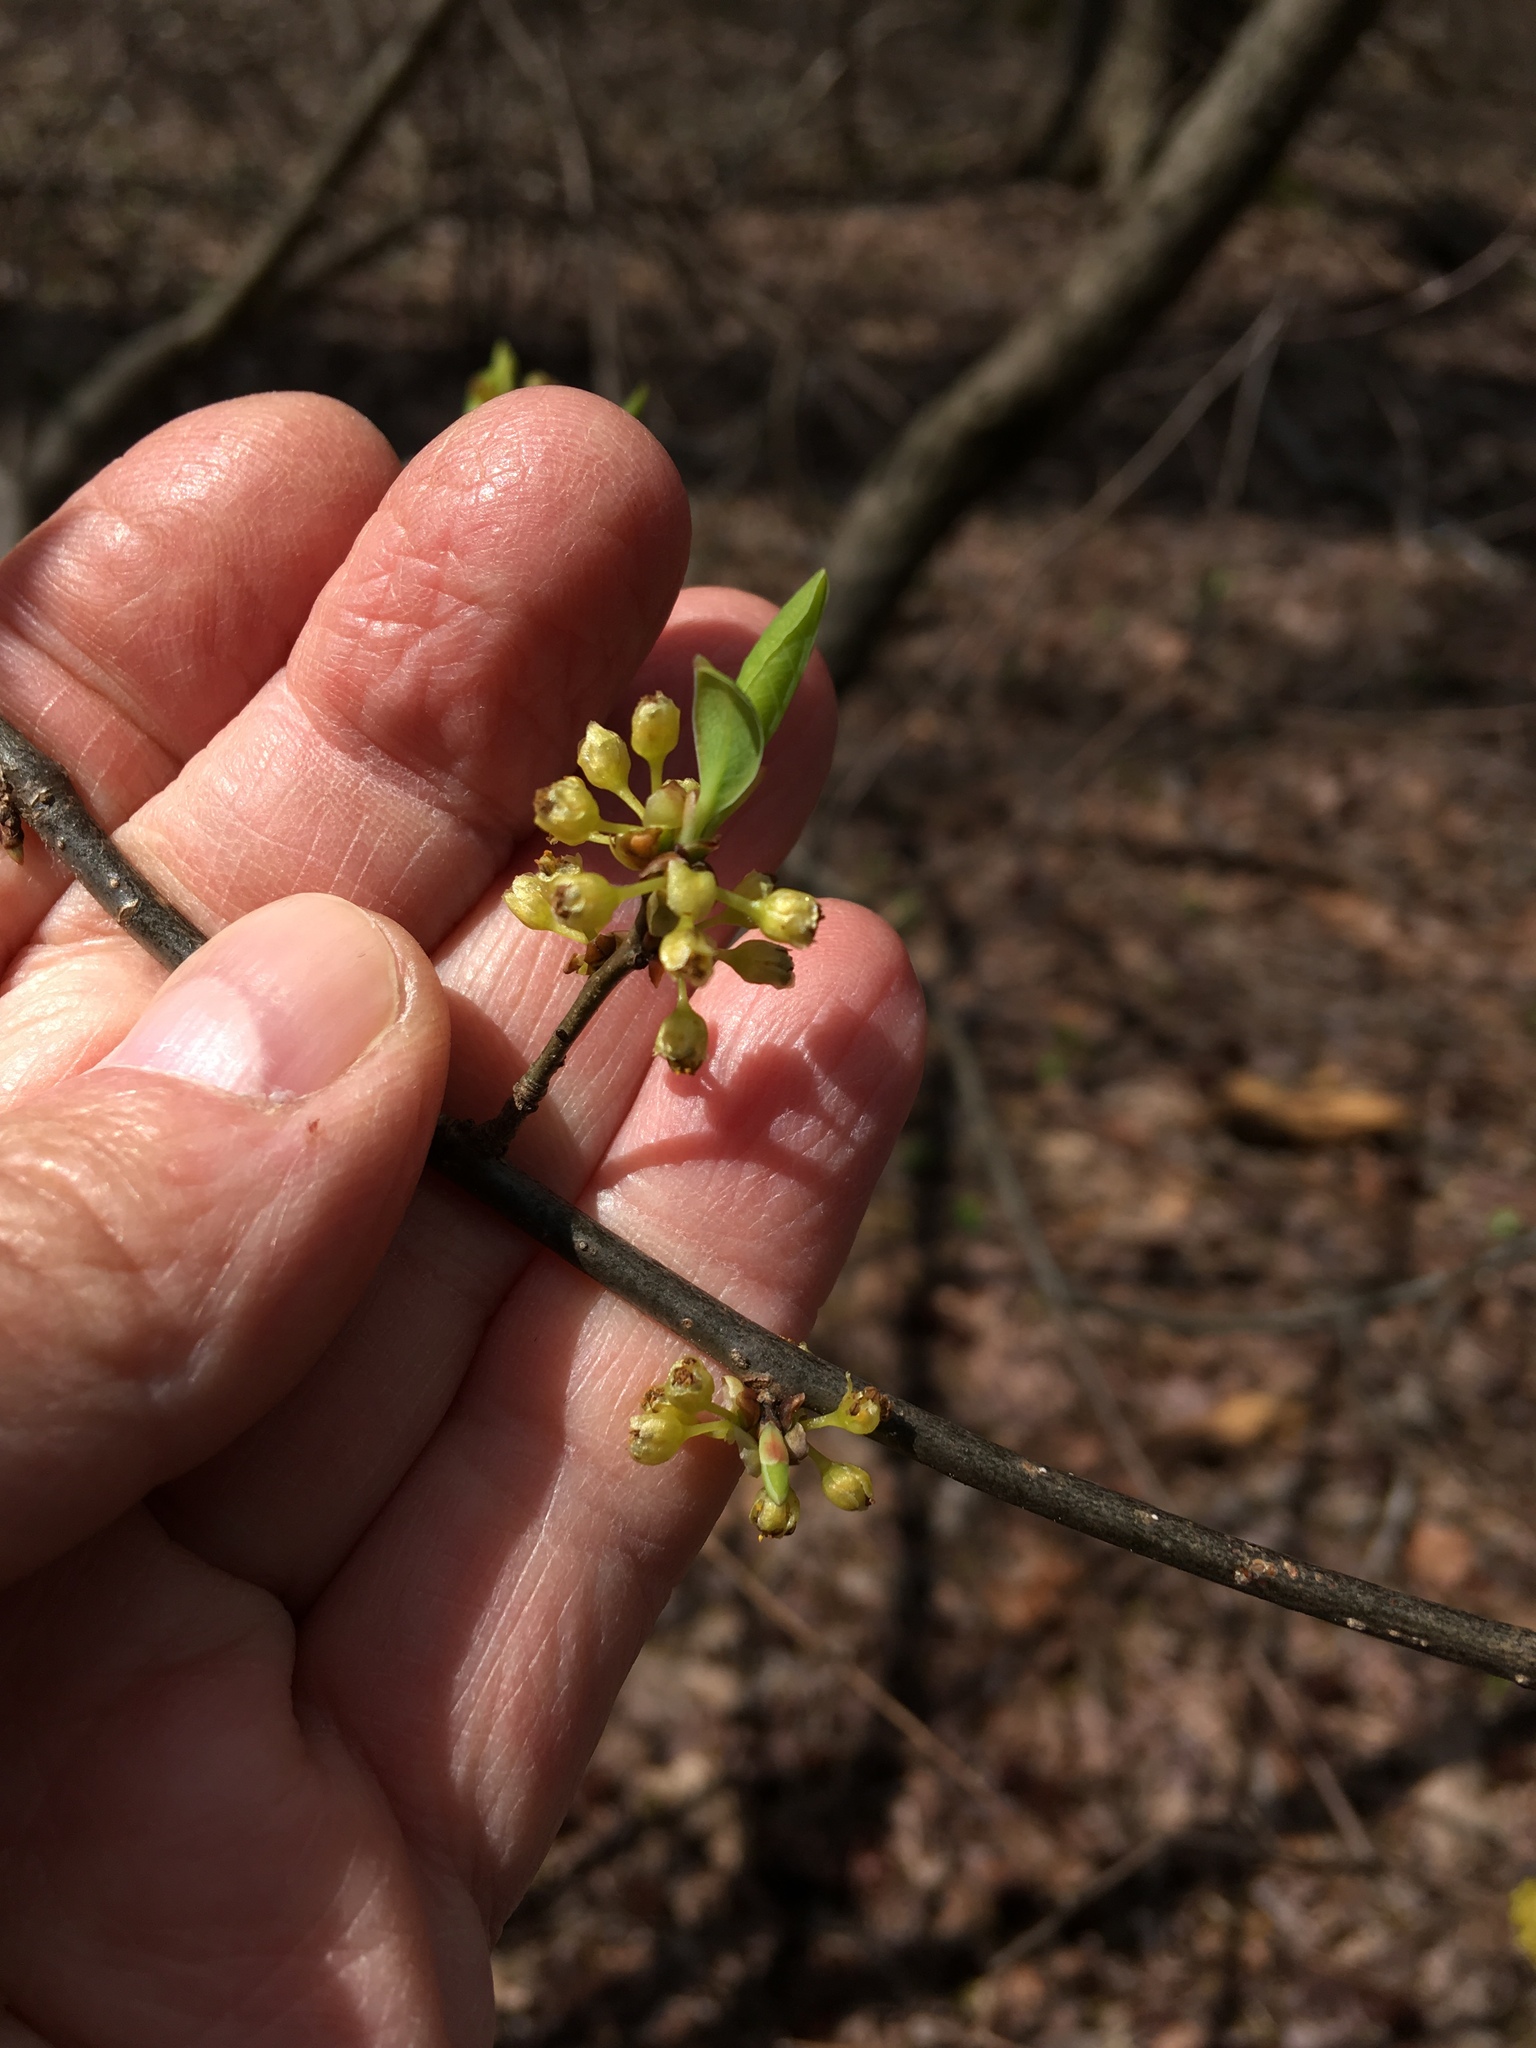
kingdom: Plantae
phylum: Tracheophyta
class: Magnoliopsida
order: Laurales
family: Lauraceae
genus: Lindera
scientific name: Lindera benzoin
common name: Spicebush
